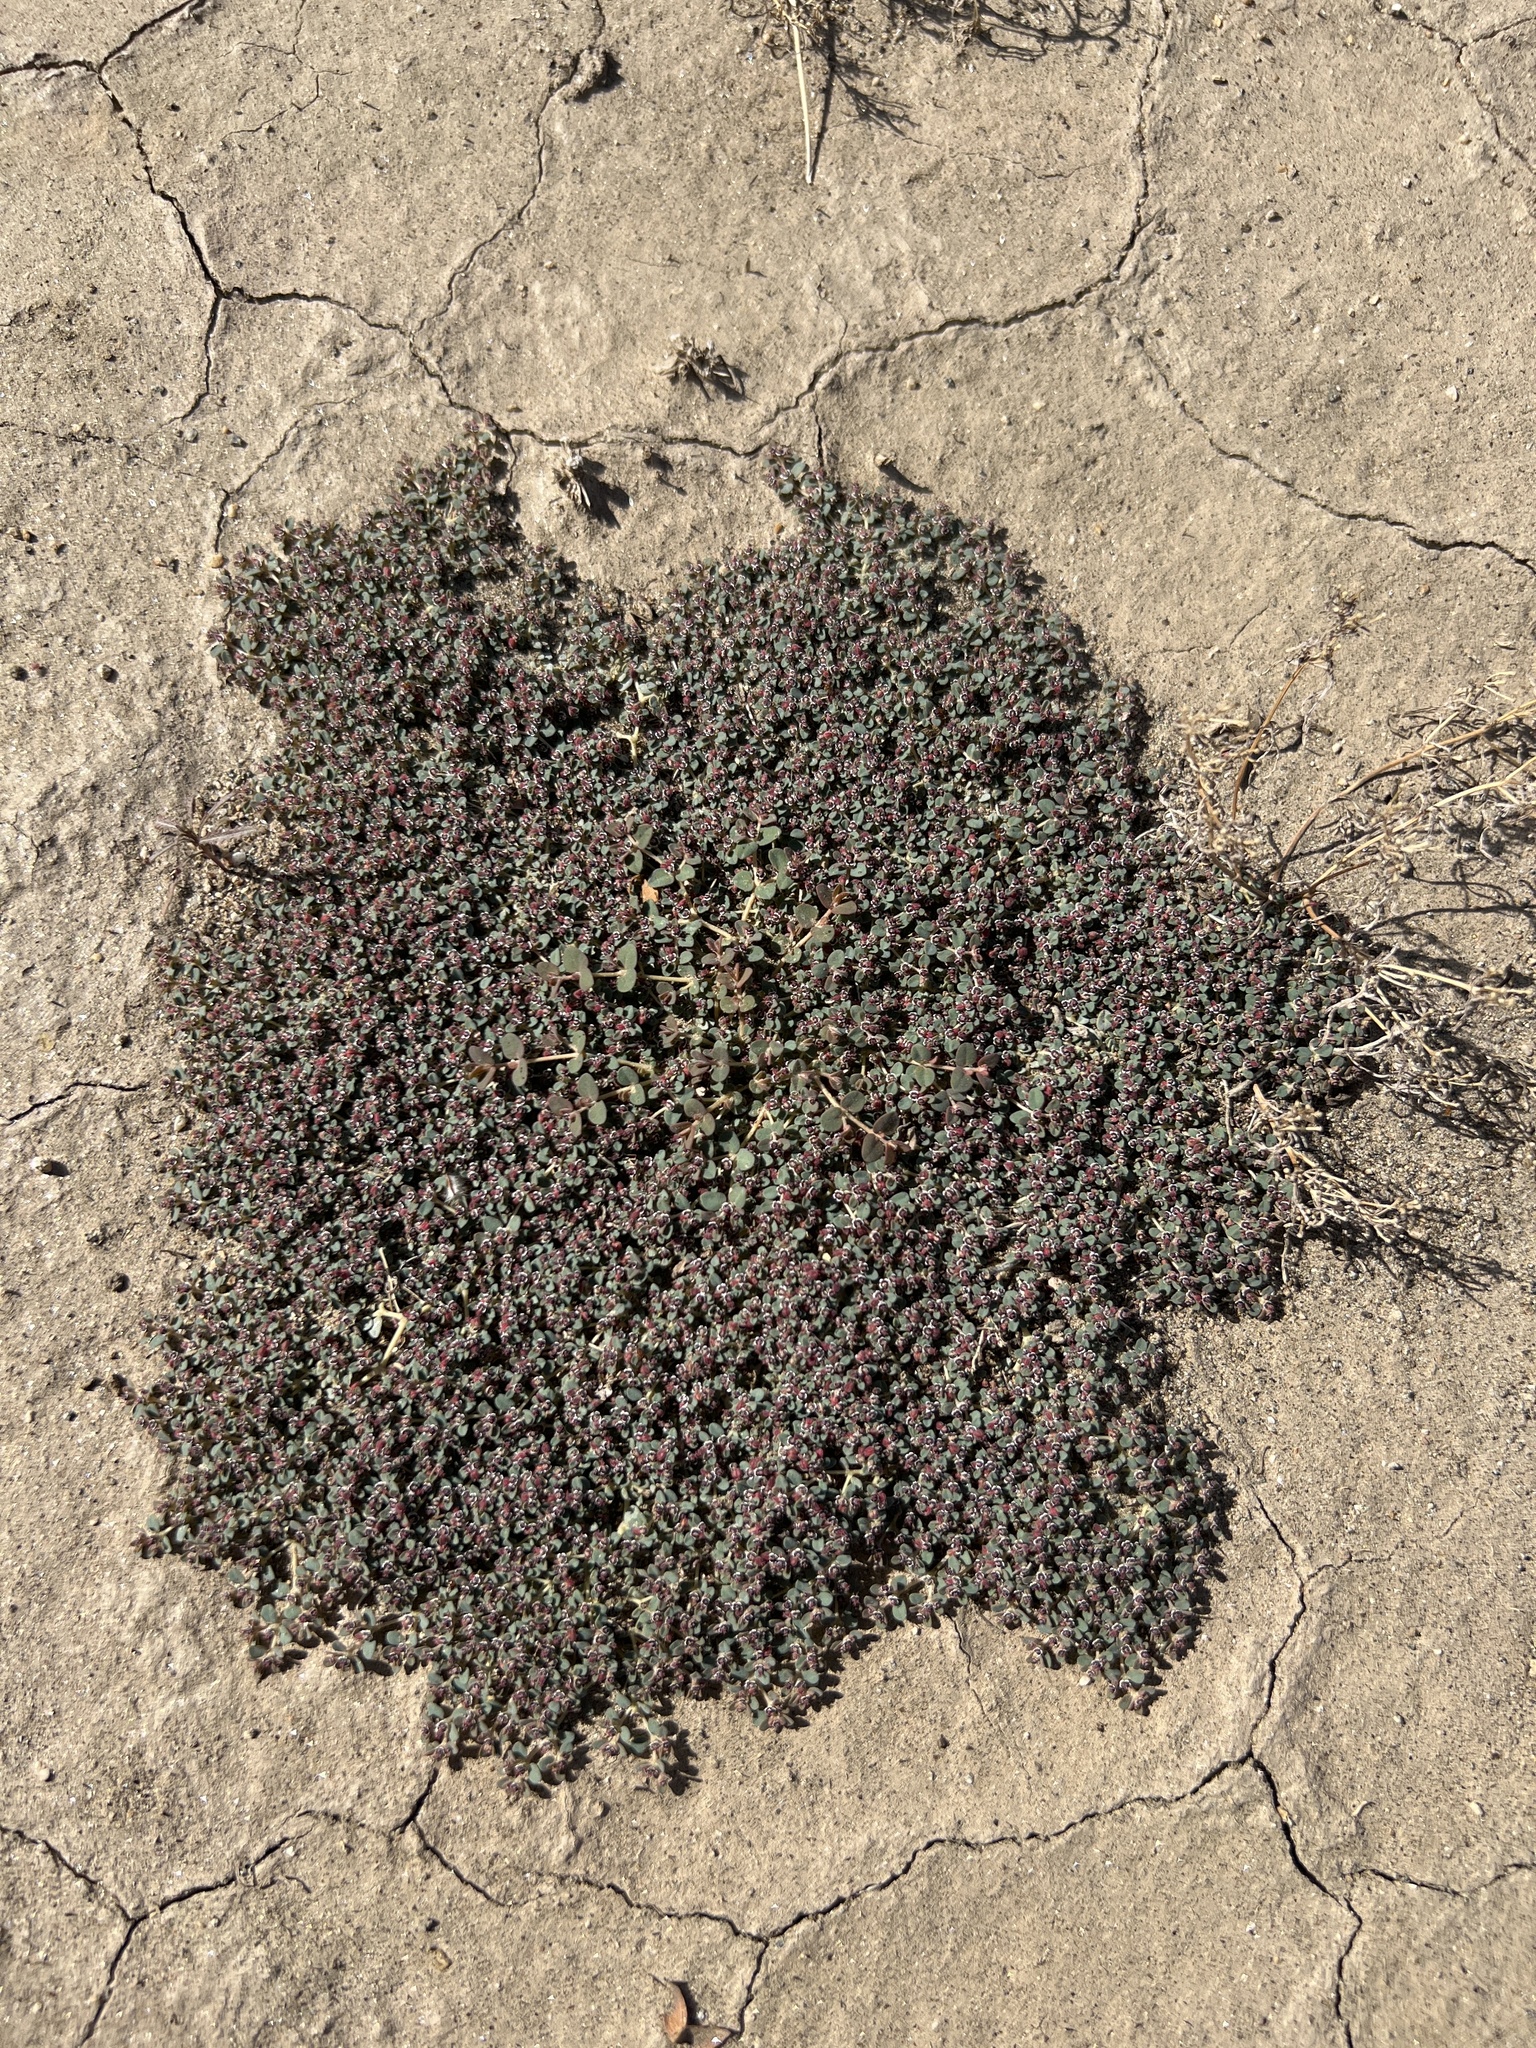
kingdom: Plantae
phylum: Tracheophyta
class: Magnoliopsida
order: Malpighiales
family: Euphorbiaceae
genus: Euphorbia
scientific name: Euphorbia polycarpa
